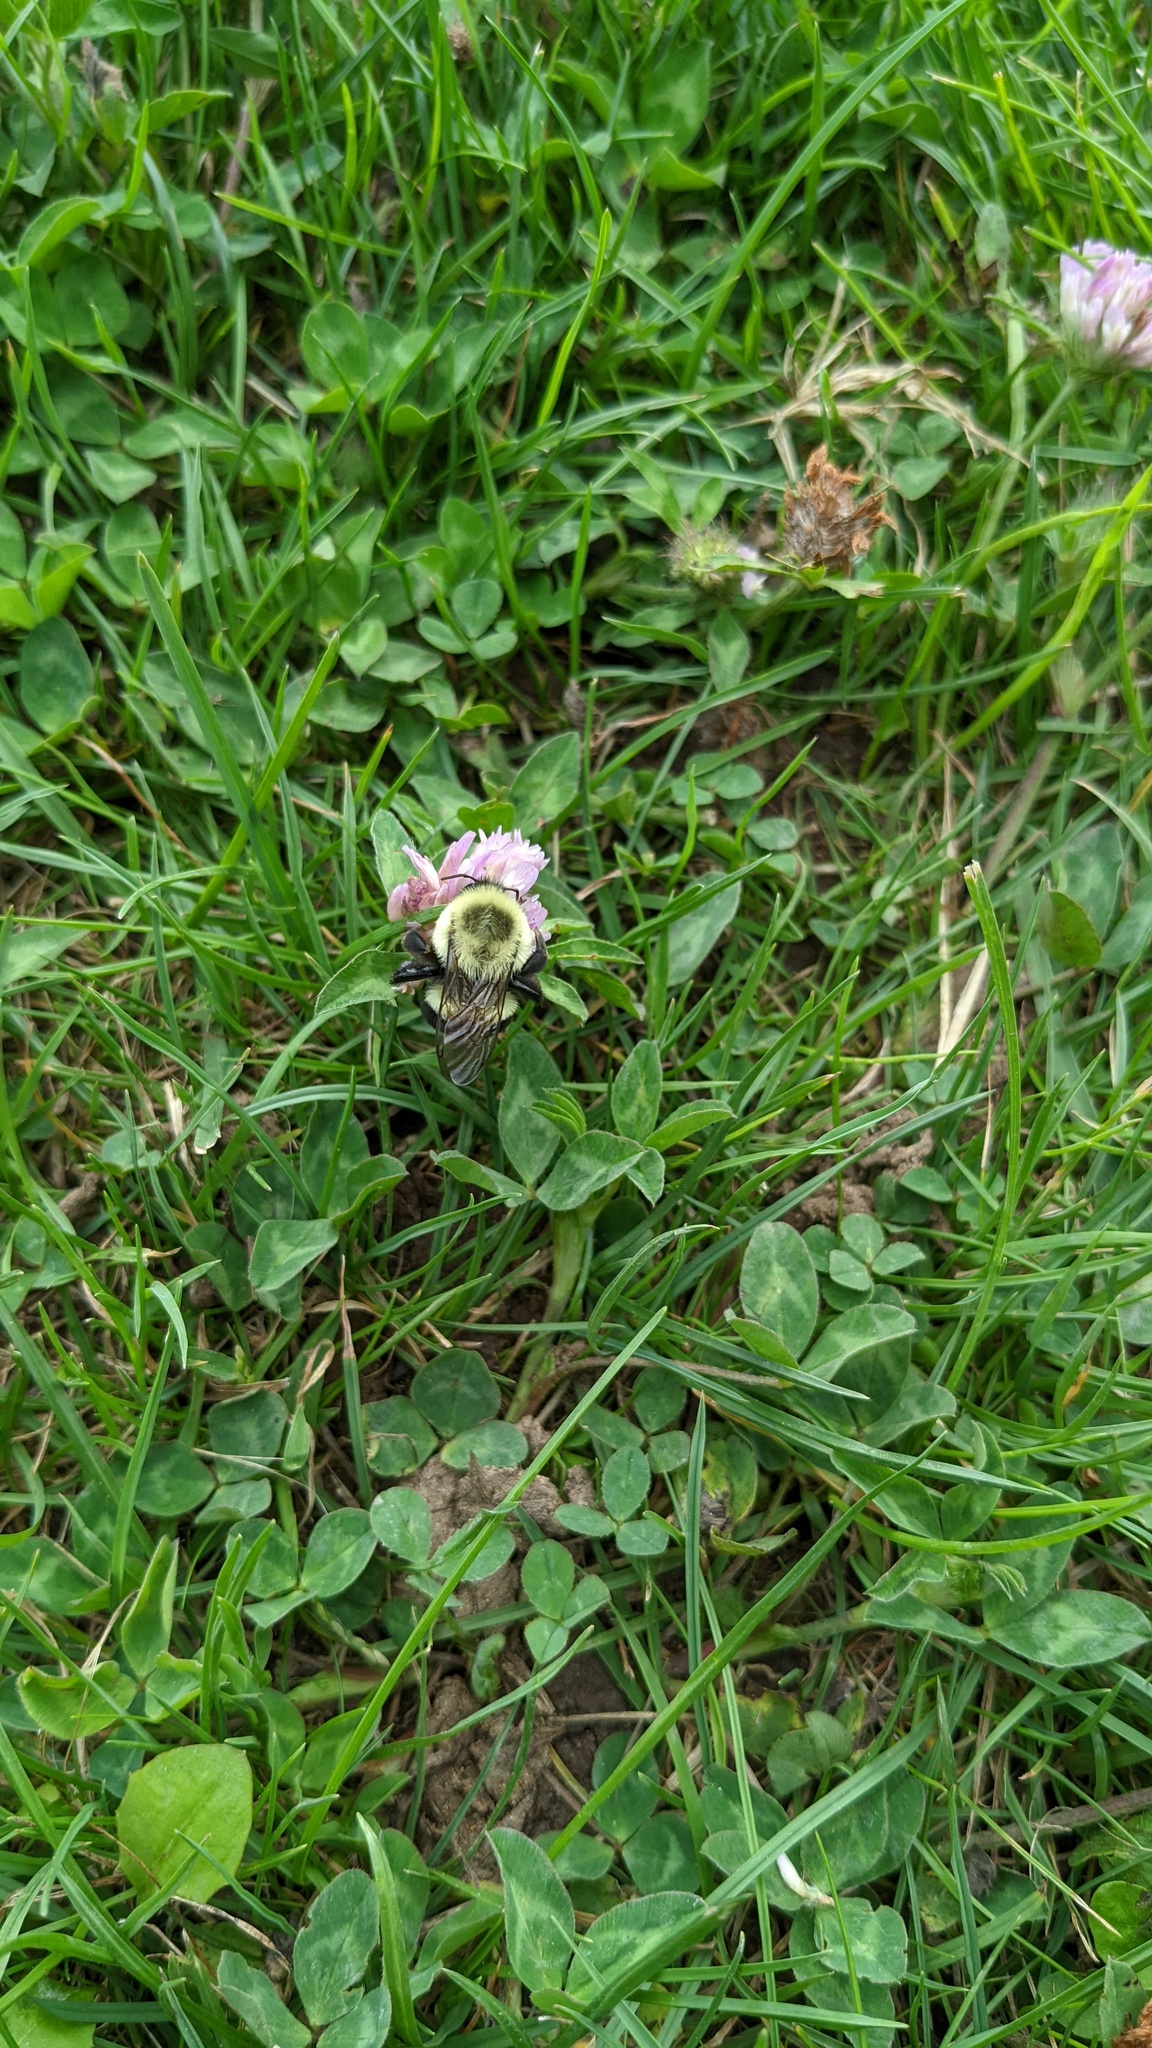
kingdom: Animalia
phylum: Arthropoda
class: Insecta
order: Hymenoptera
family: Apidae
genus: Bombus
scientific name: Bombus impatiens
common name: Common eastern bumble bee
